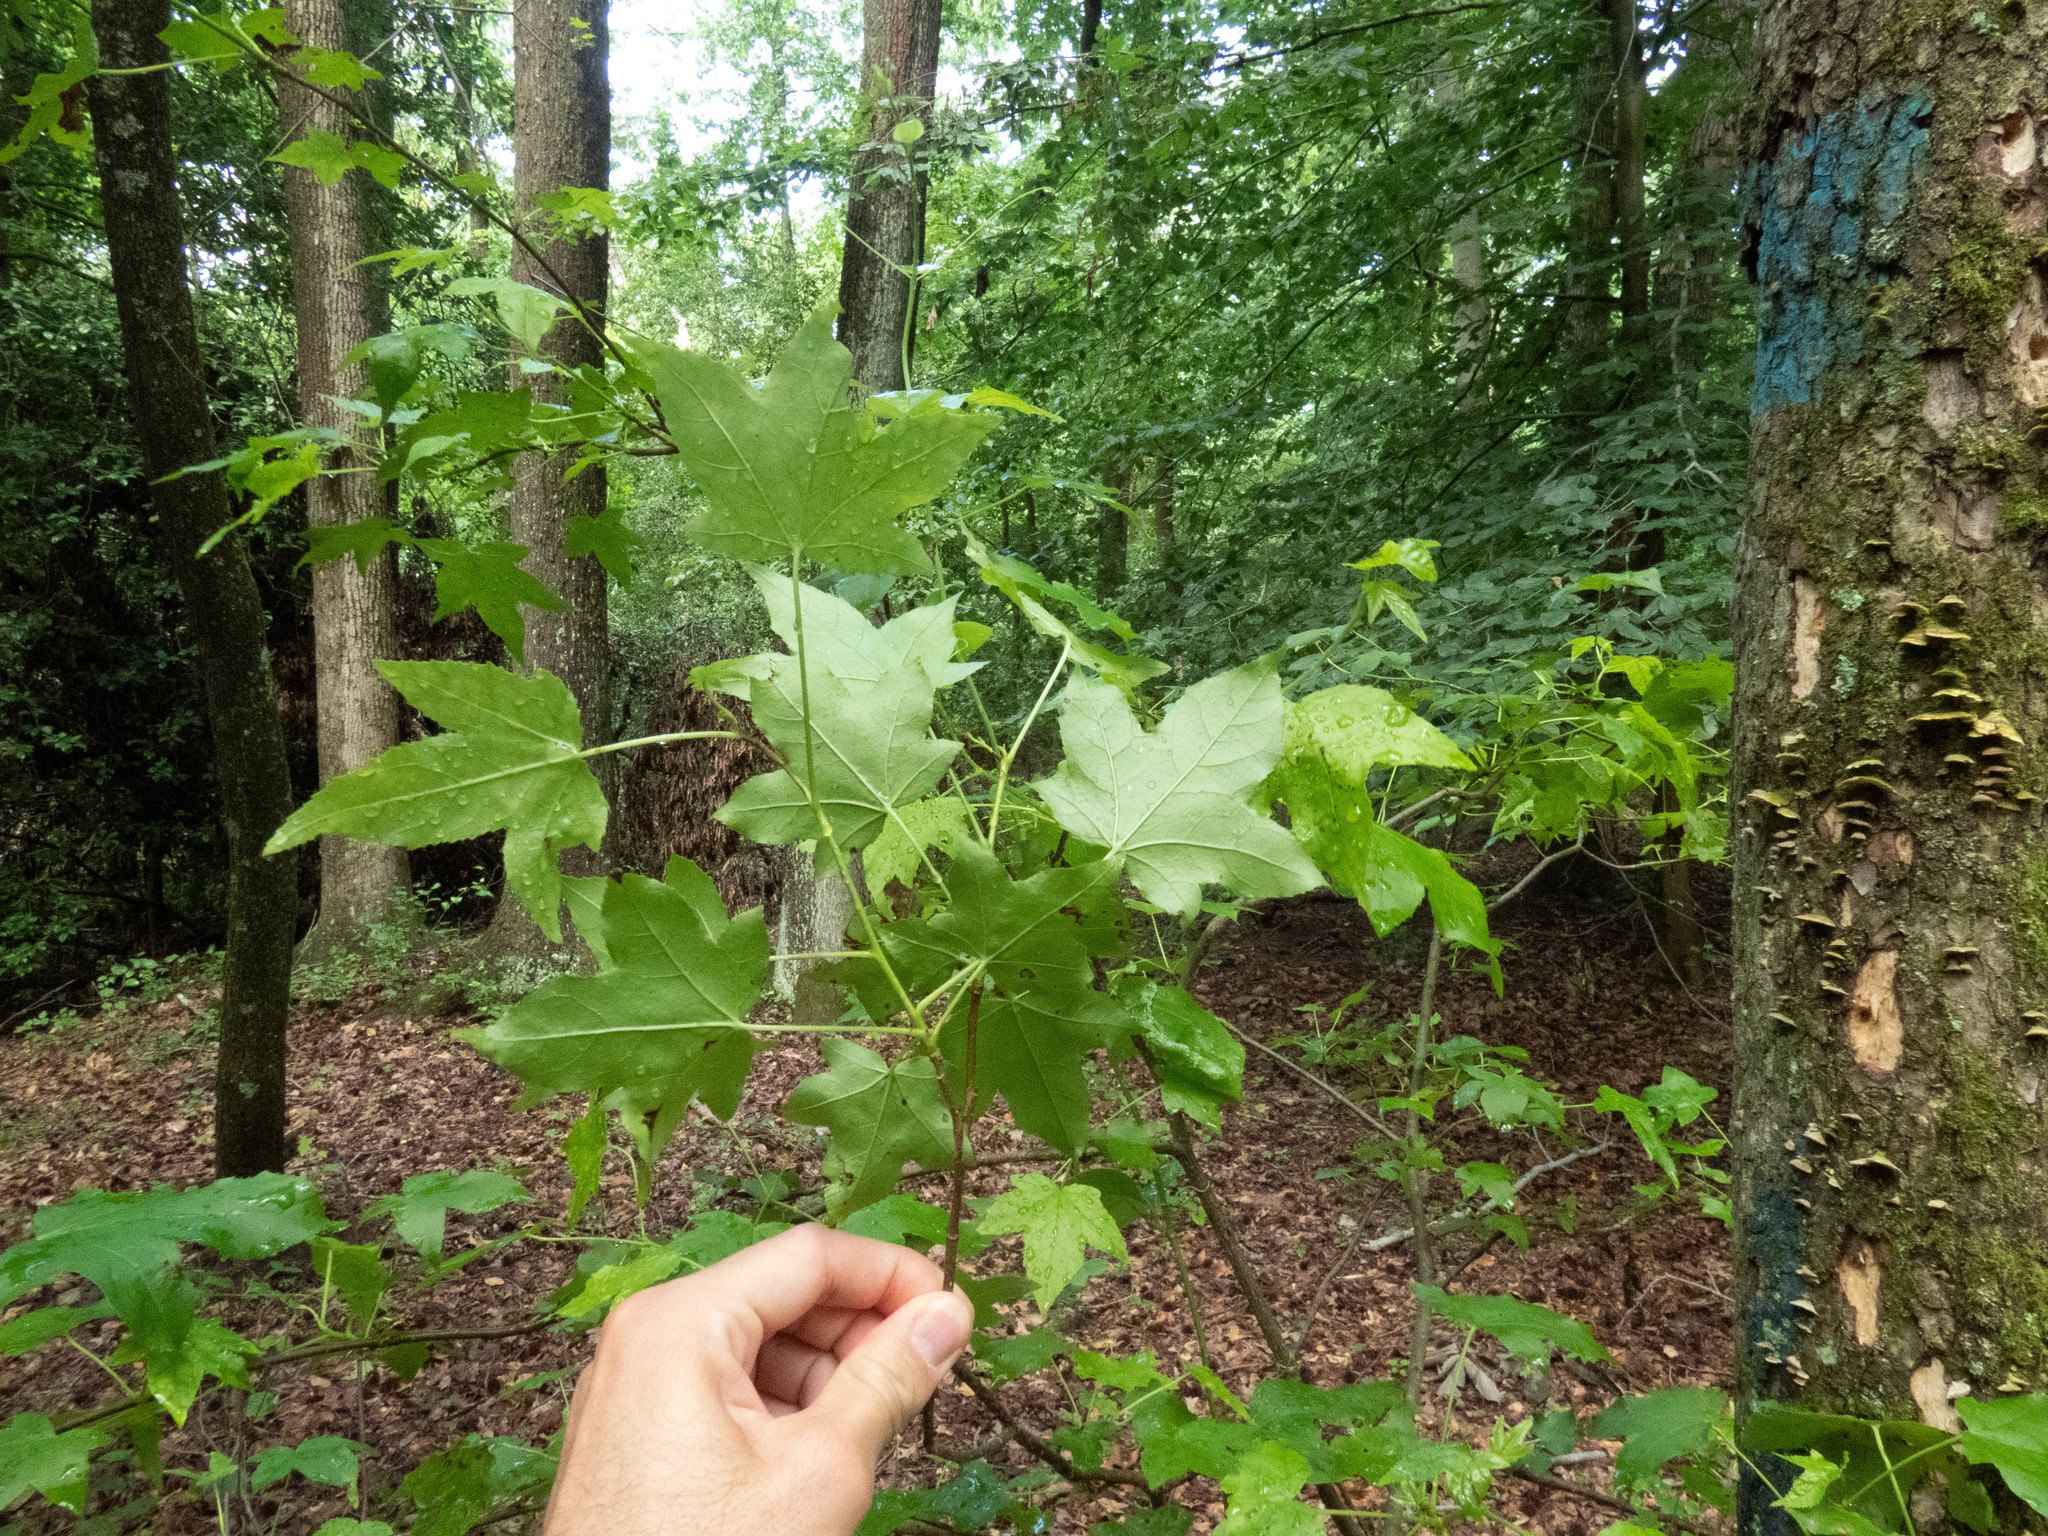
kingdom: Plantae
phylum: Tracheophyta
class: Magnoliopsida
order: Saxifragales
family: Altingiaceae
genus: Liquidambar
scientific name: Liquidambar styraciflua
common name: Sweet gum
